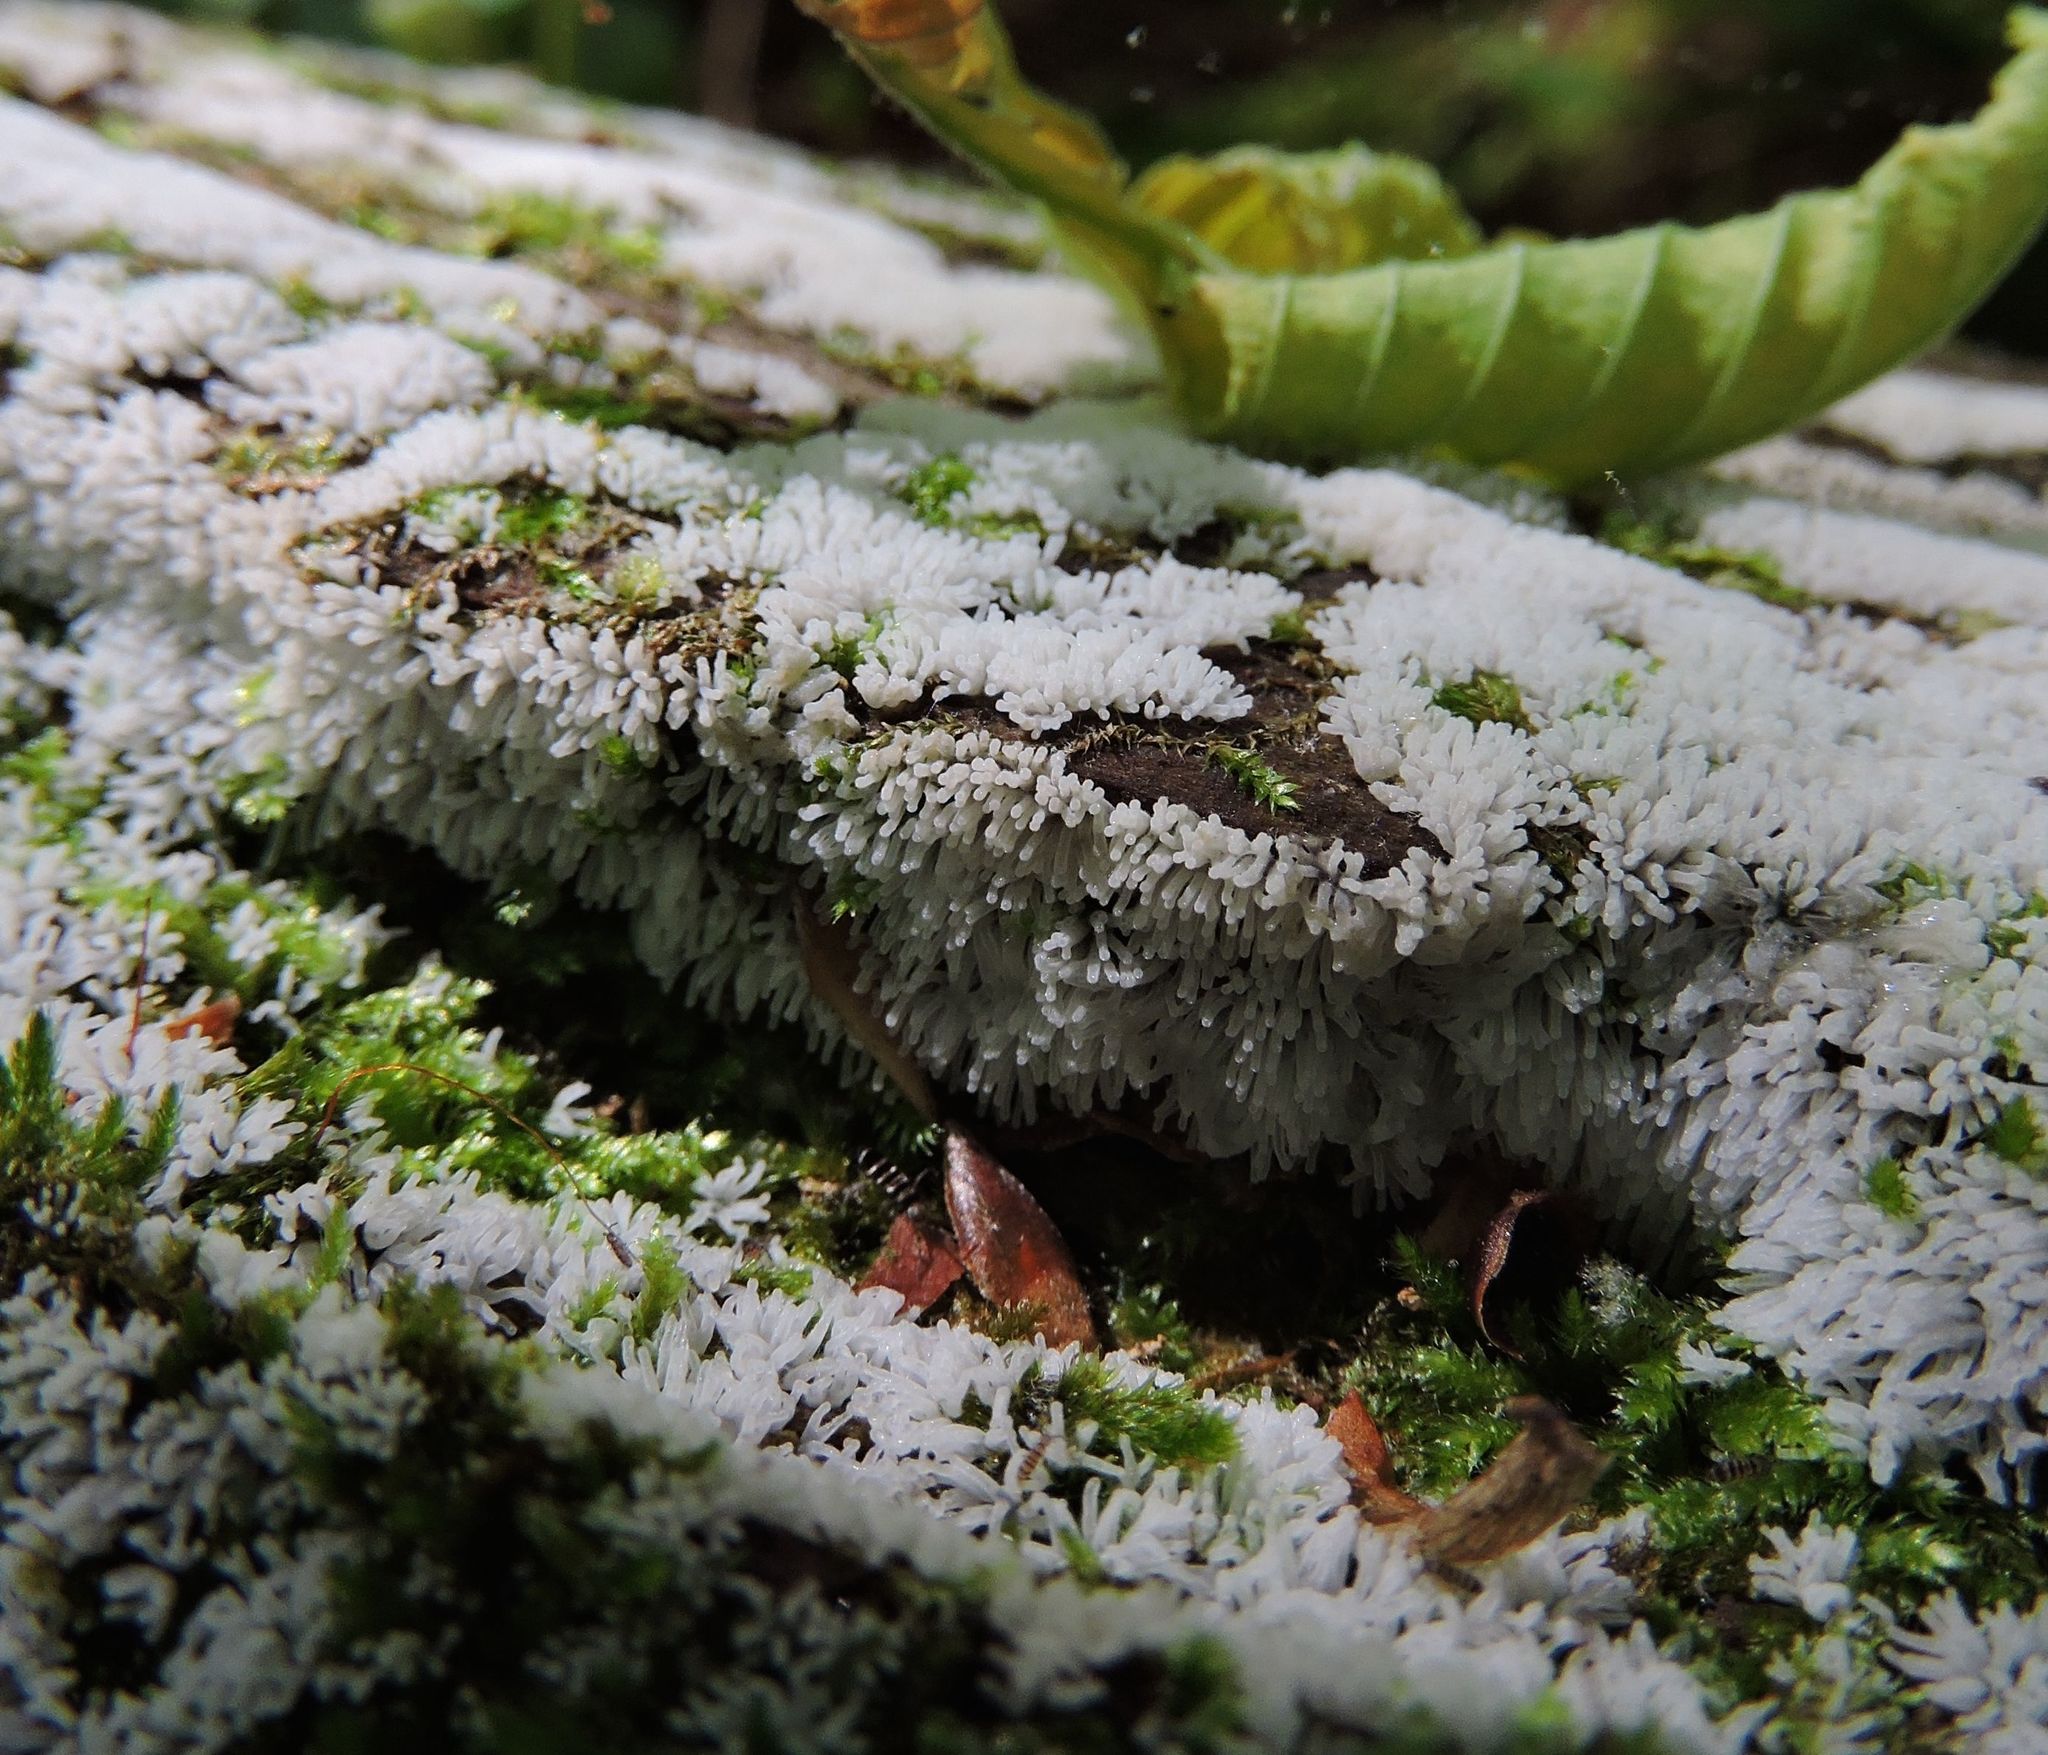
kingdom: Protozoa
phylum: Mycetozoa
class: Protosteliomycetes
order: Ceratiomyxales
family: Ceratiomyxaceae
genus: Ceratiomyxa
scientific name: Ceratiomyxa fruticulosa
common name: Honeycomb coral slime mold
